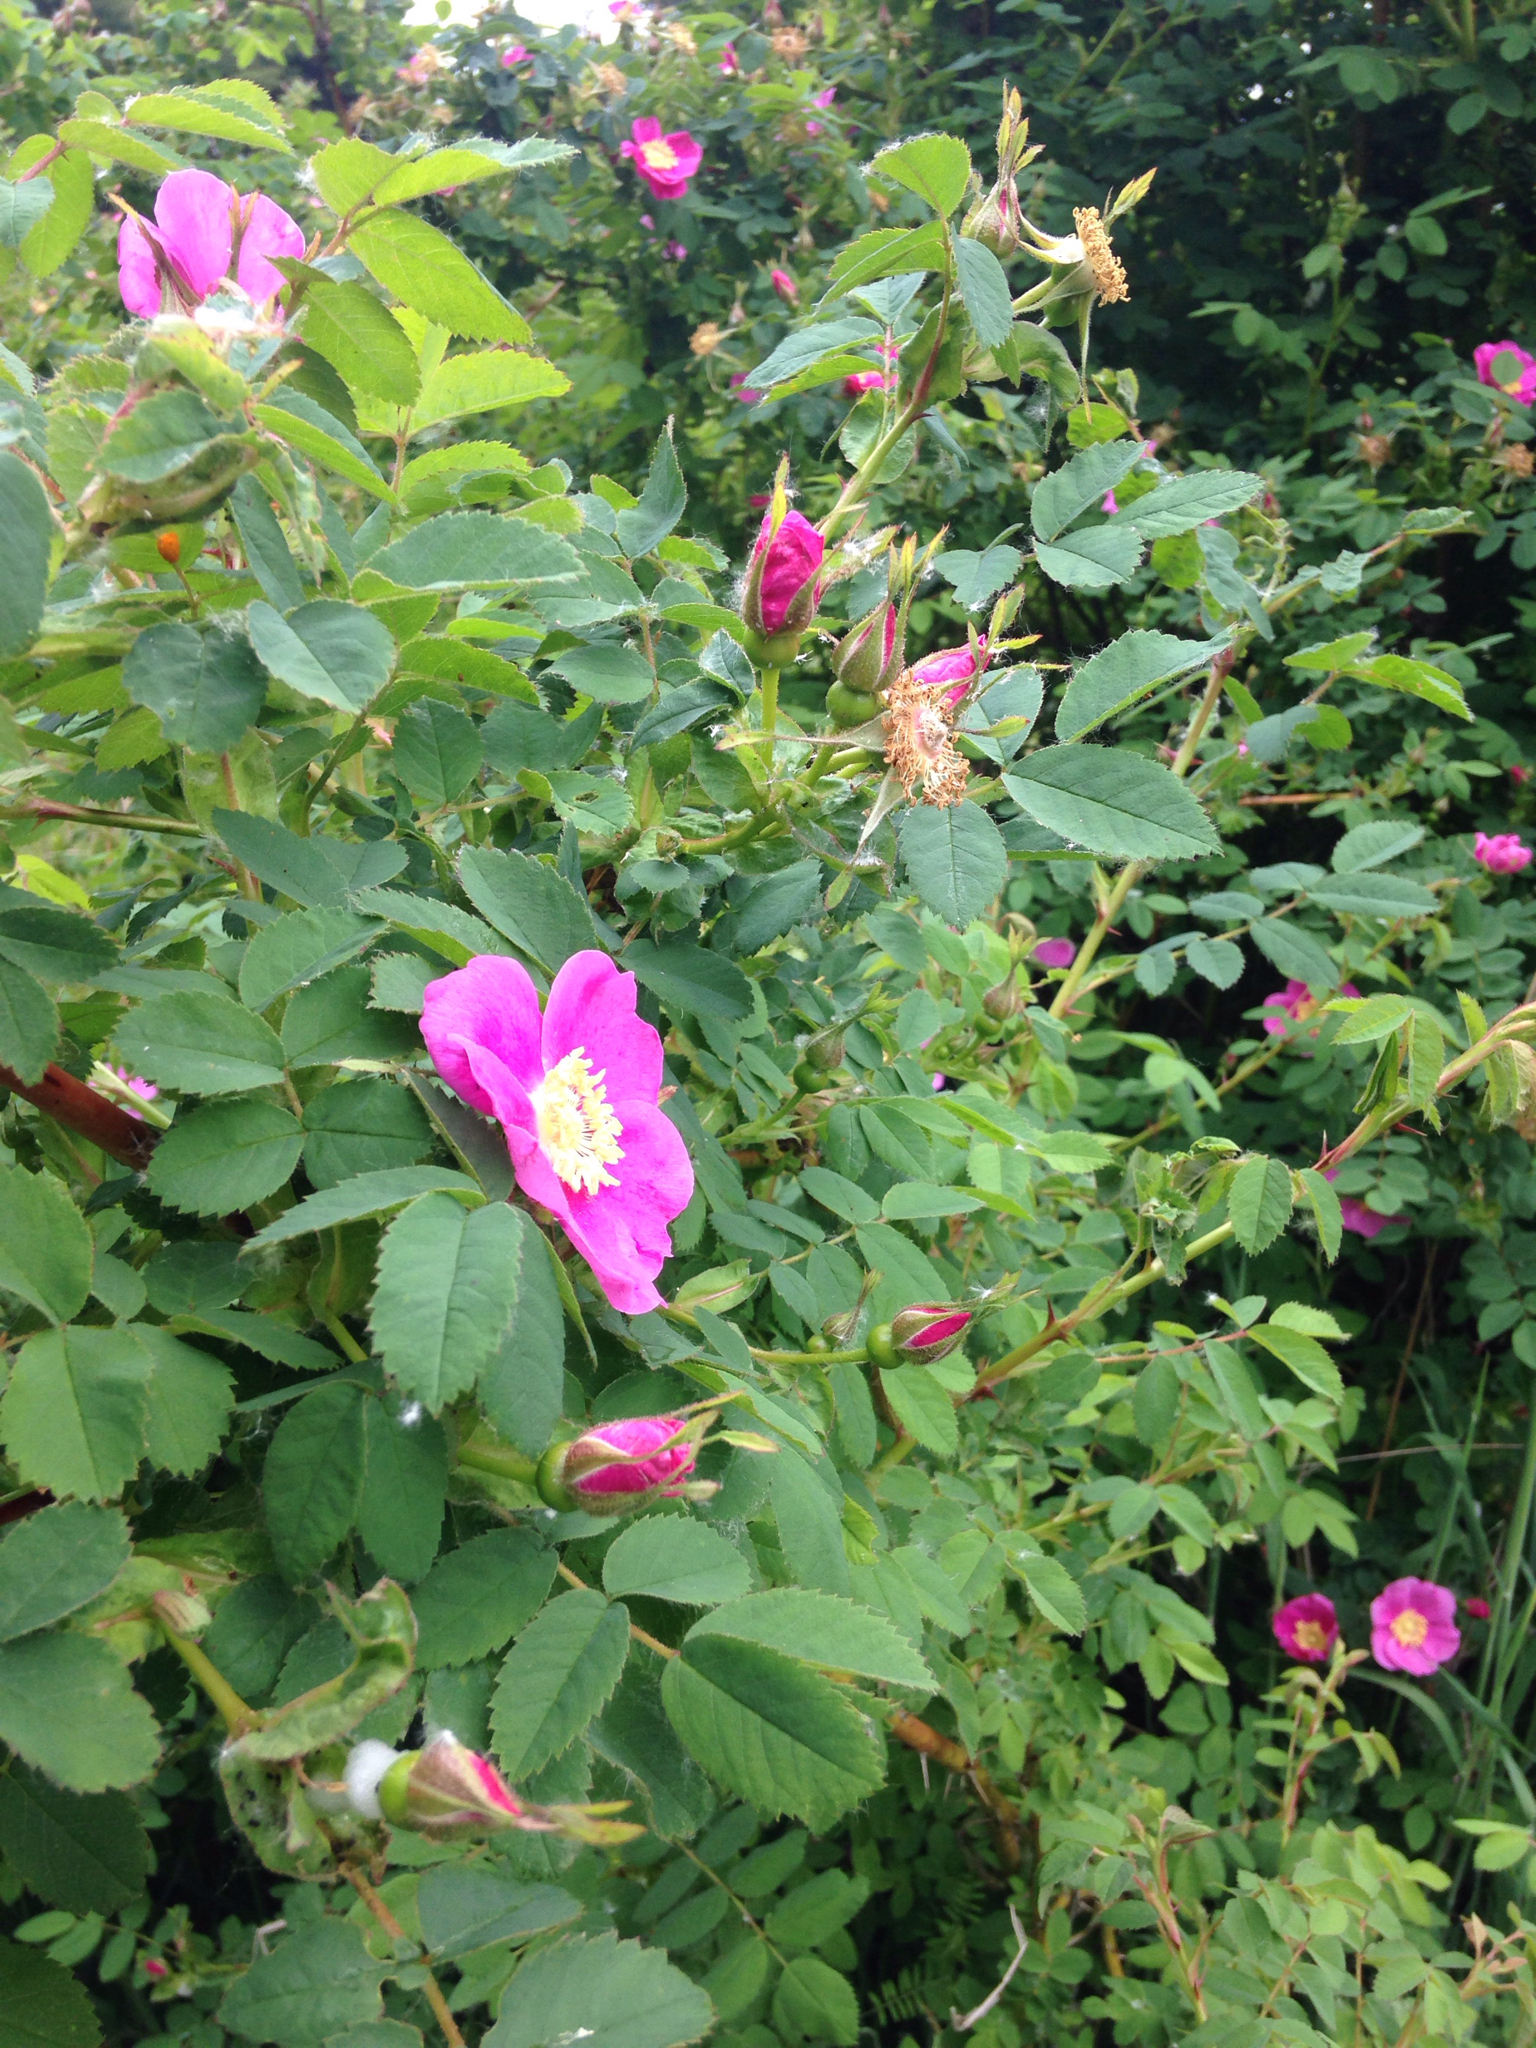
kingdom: Plantae
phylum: Tracheophyta
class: Magnoliopsida
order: Rosales
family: Rosaceae
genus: Rosa
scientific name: Rosa nutkana
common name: Nootka rose
